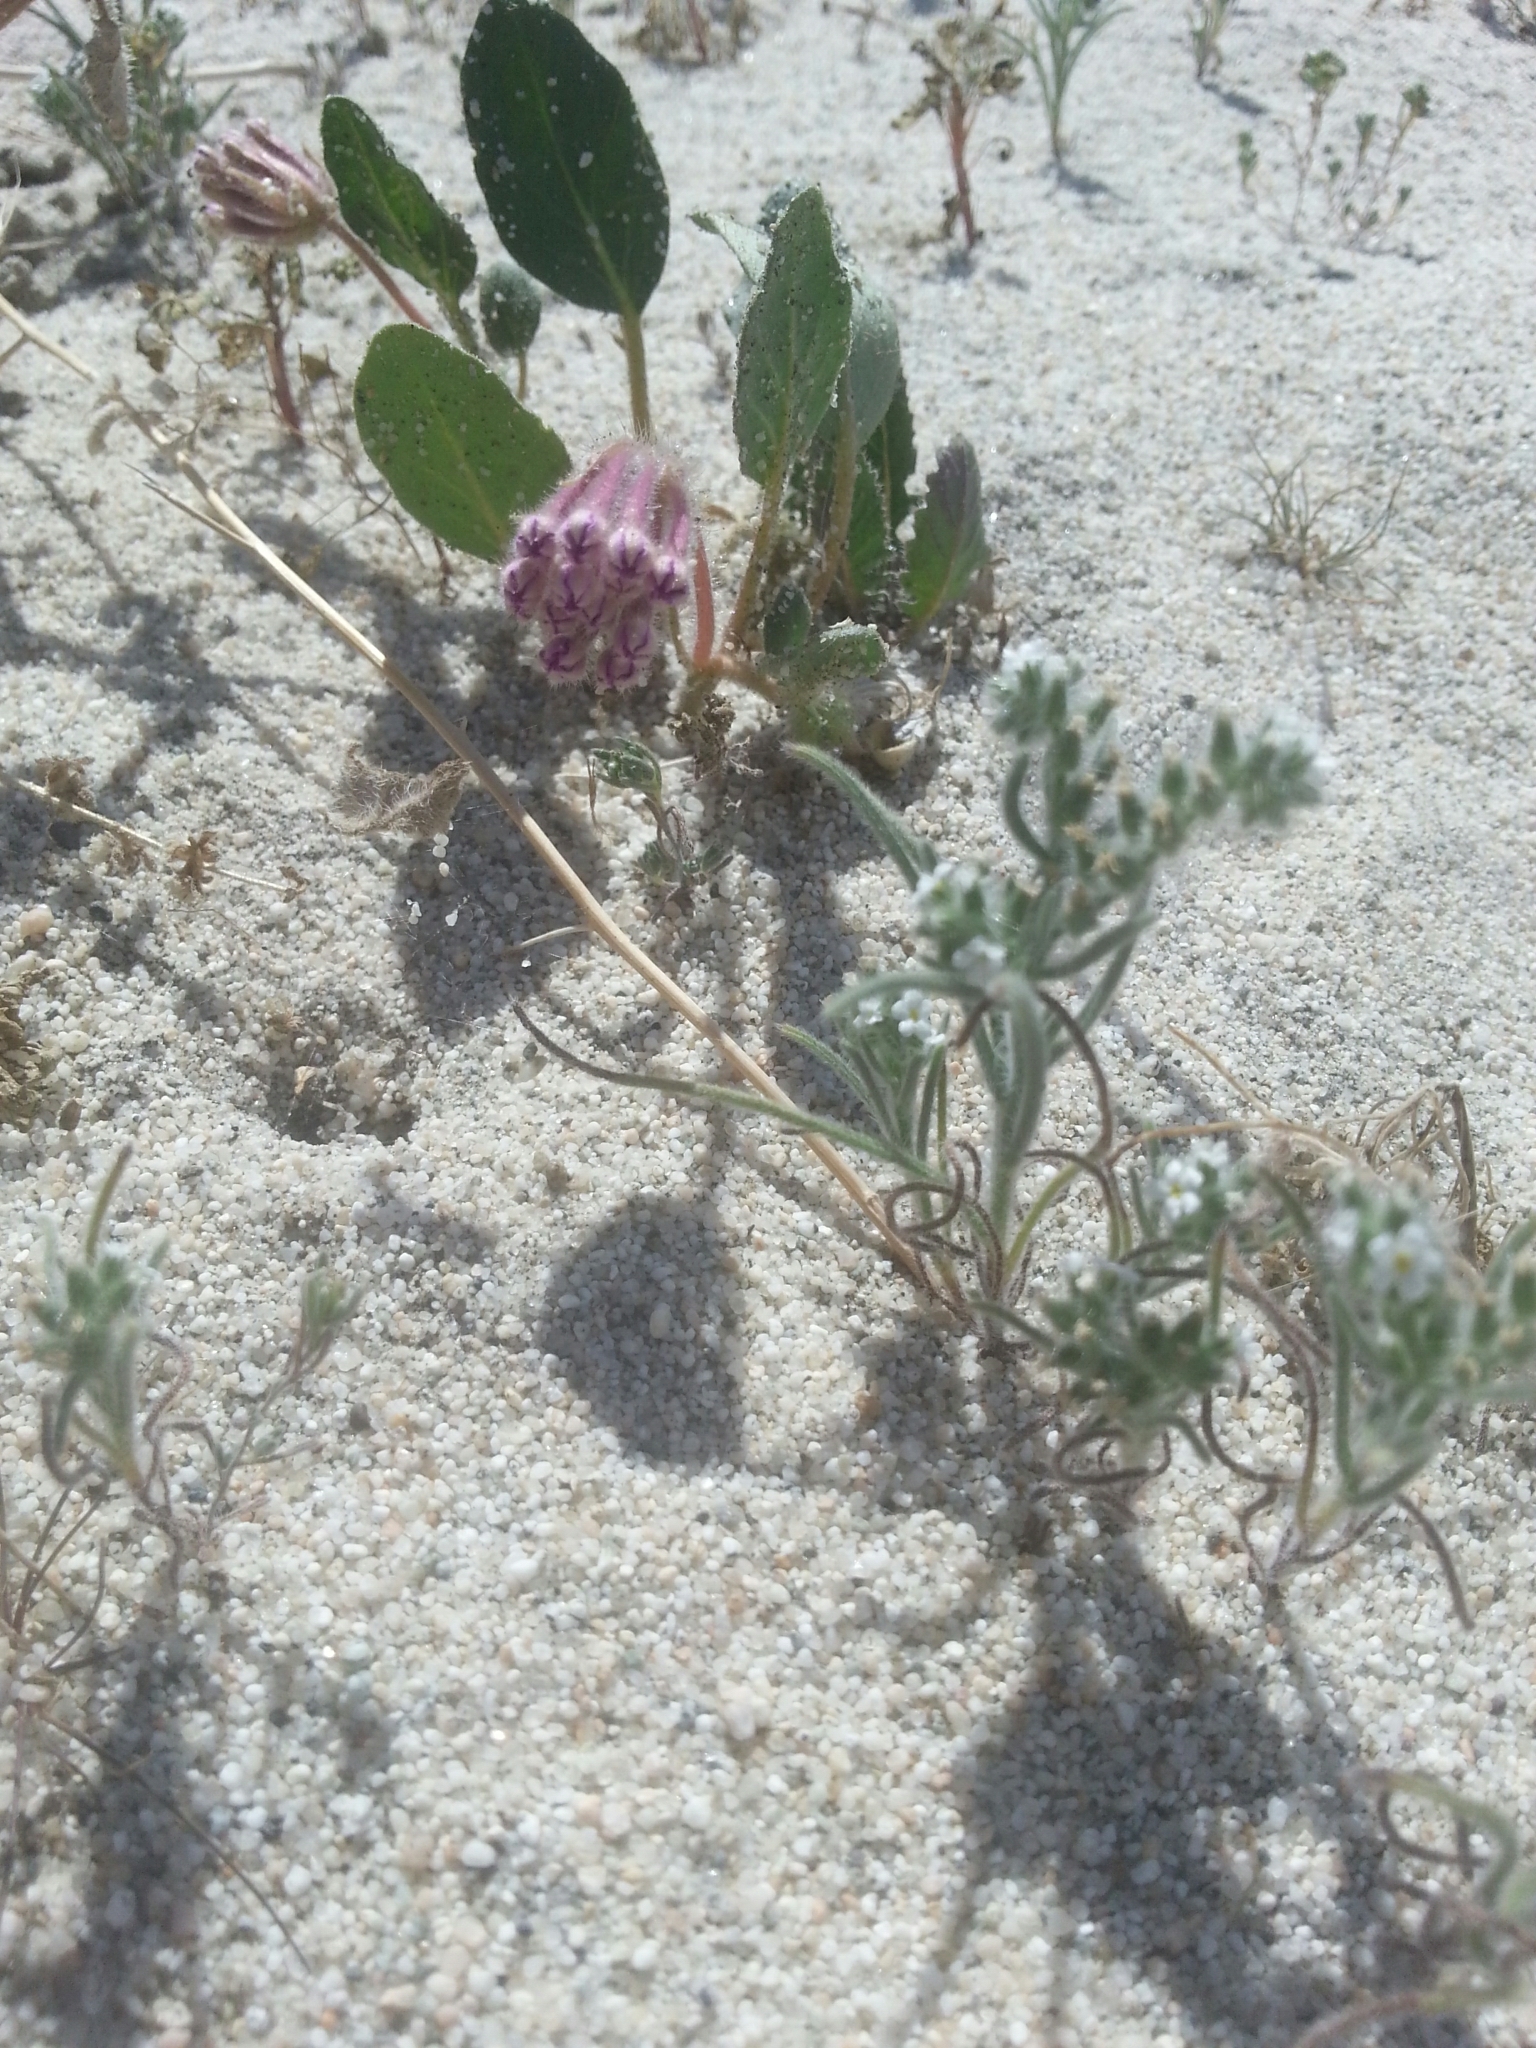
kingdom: Plantae
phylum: Tracheophyta
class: Magnoliopsida
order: Caryophyllales
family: Nyctaginaceae
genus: Abronia
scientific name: Abronia villosa
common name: Desert sand-verbena
